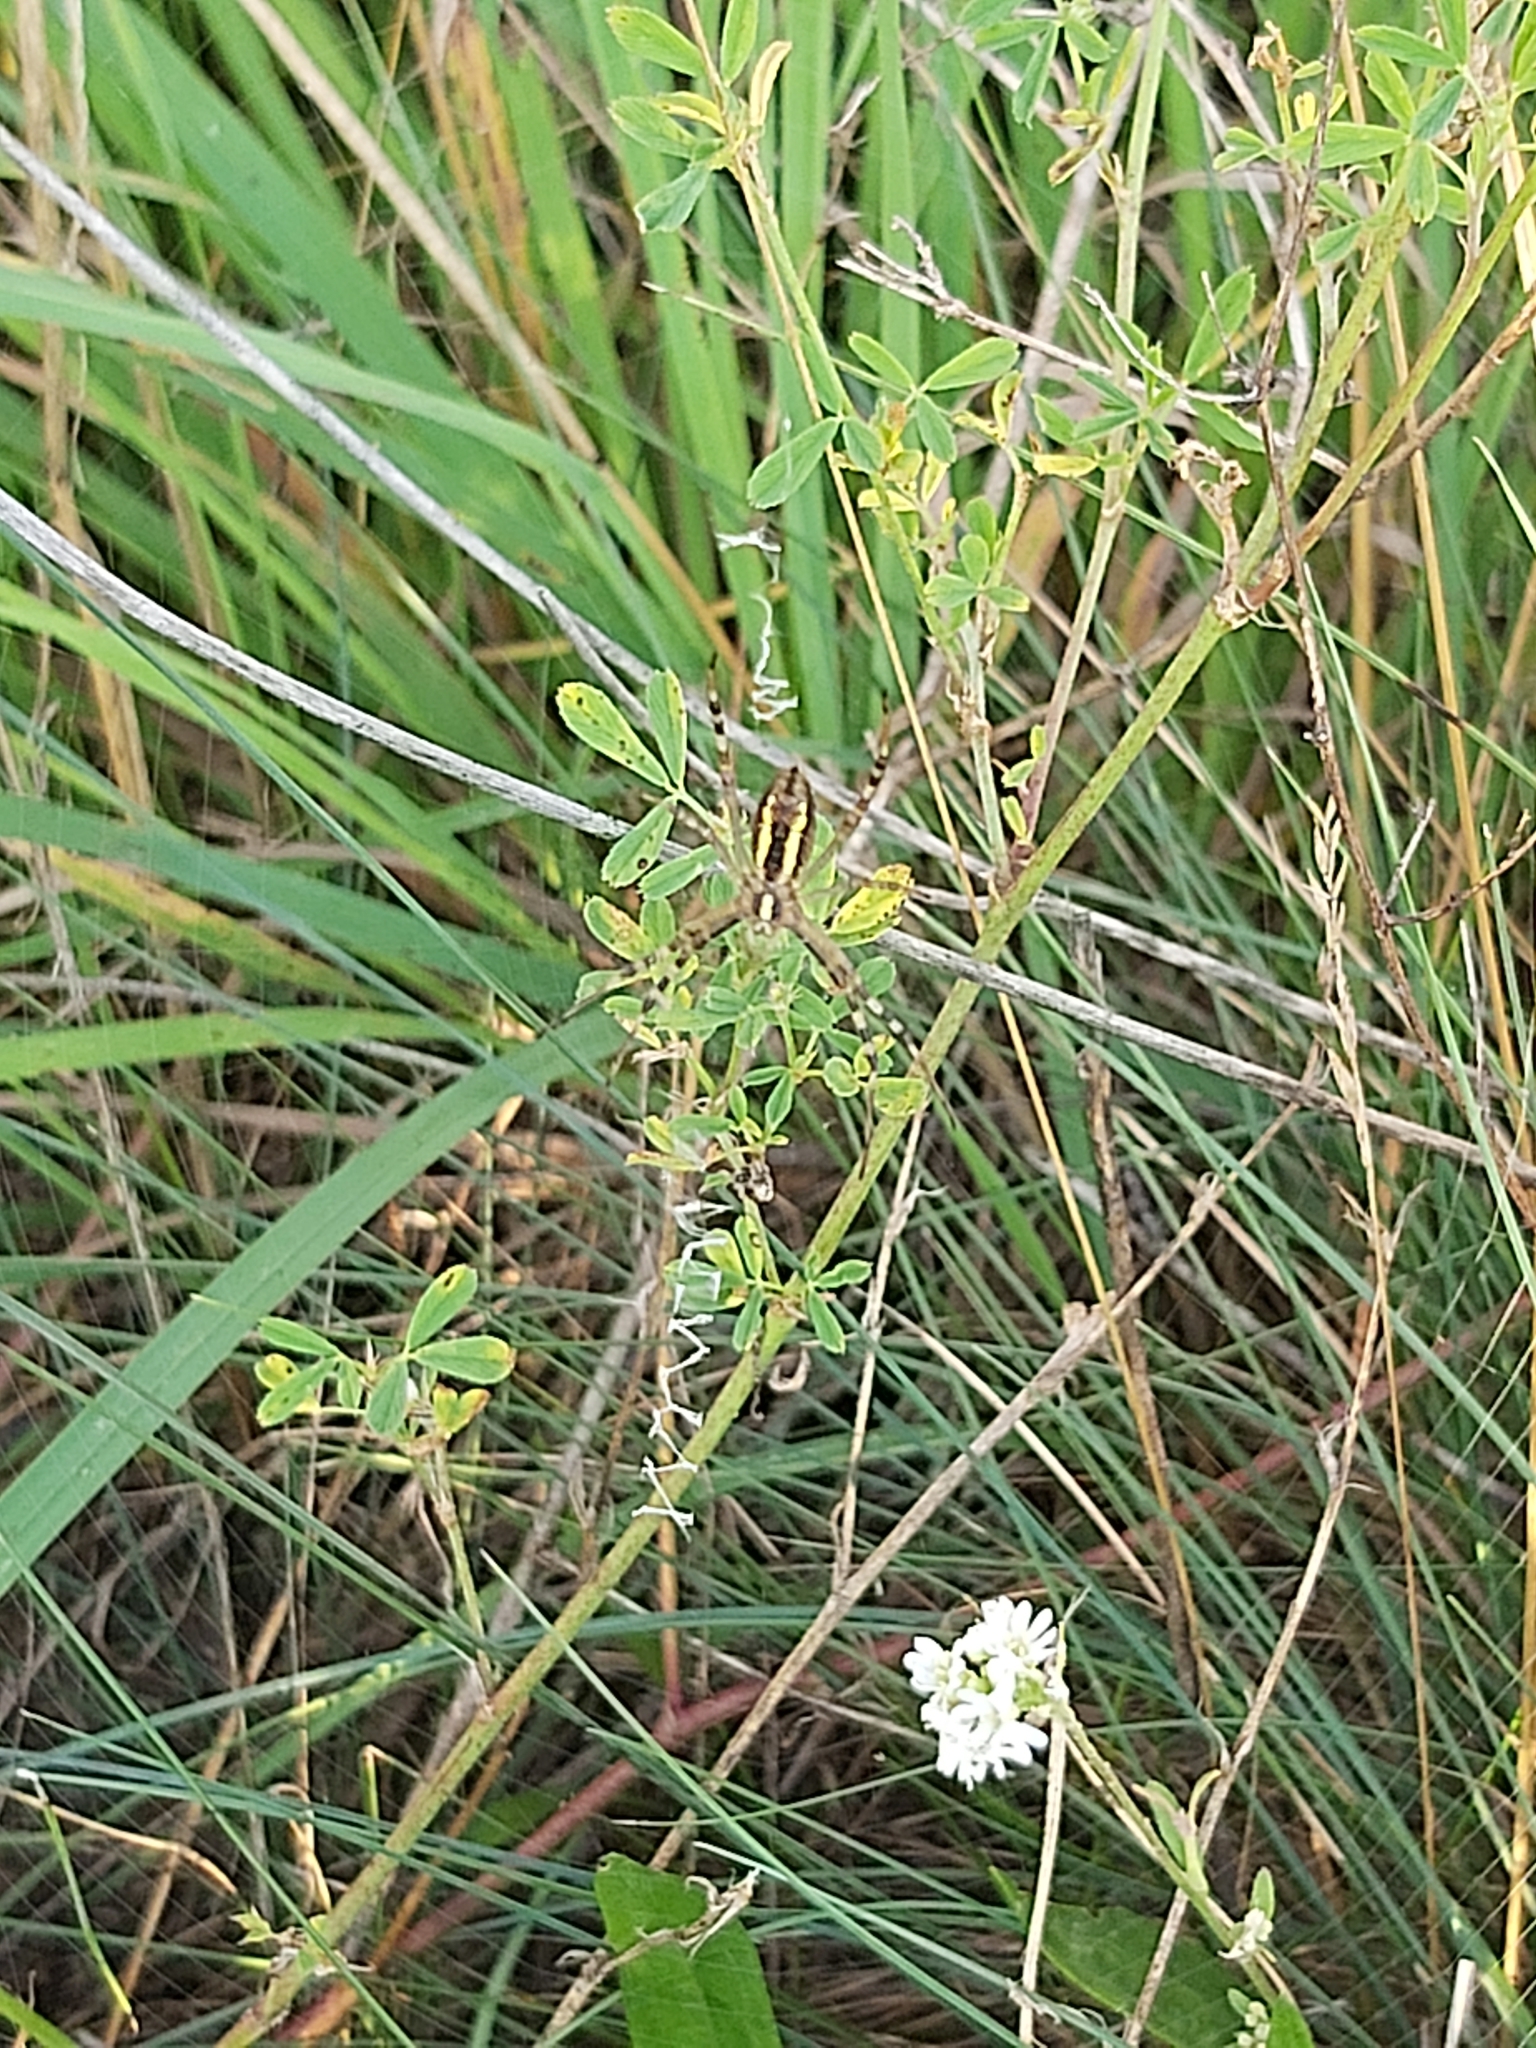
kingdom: Animalia
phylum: Arthropoda
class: Arachnida
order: Araneae
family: Araneidae
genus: Argiope
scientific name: Argiope bruennichi
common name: Wasp spider
